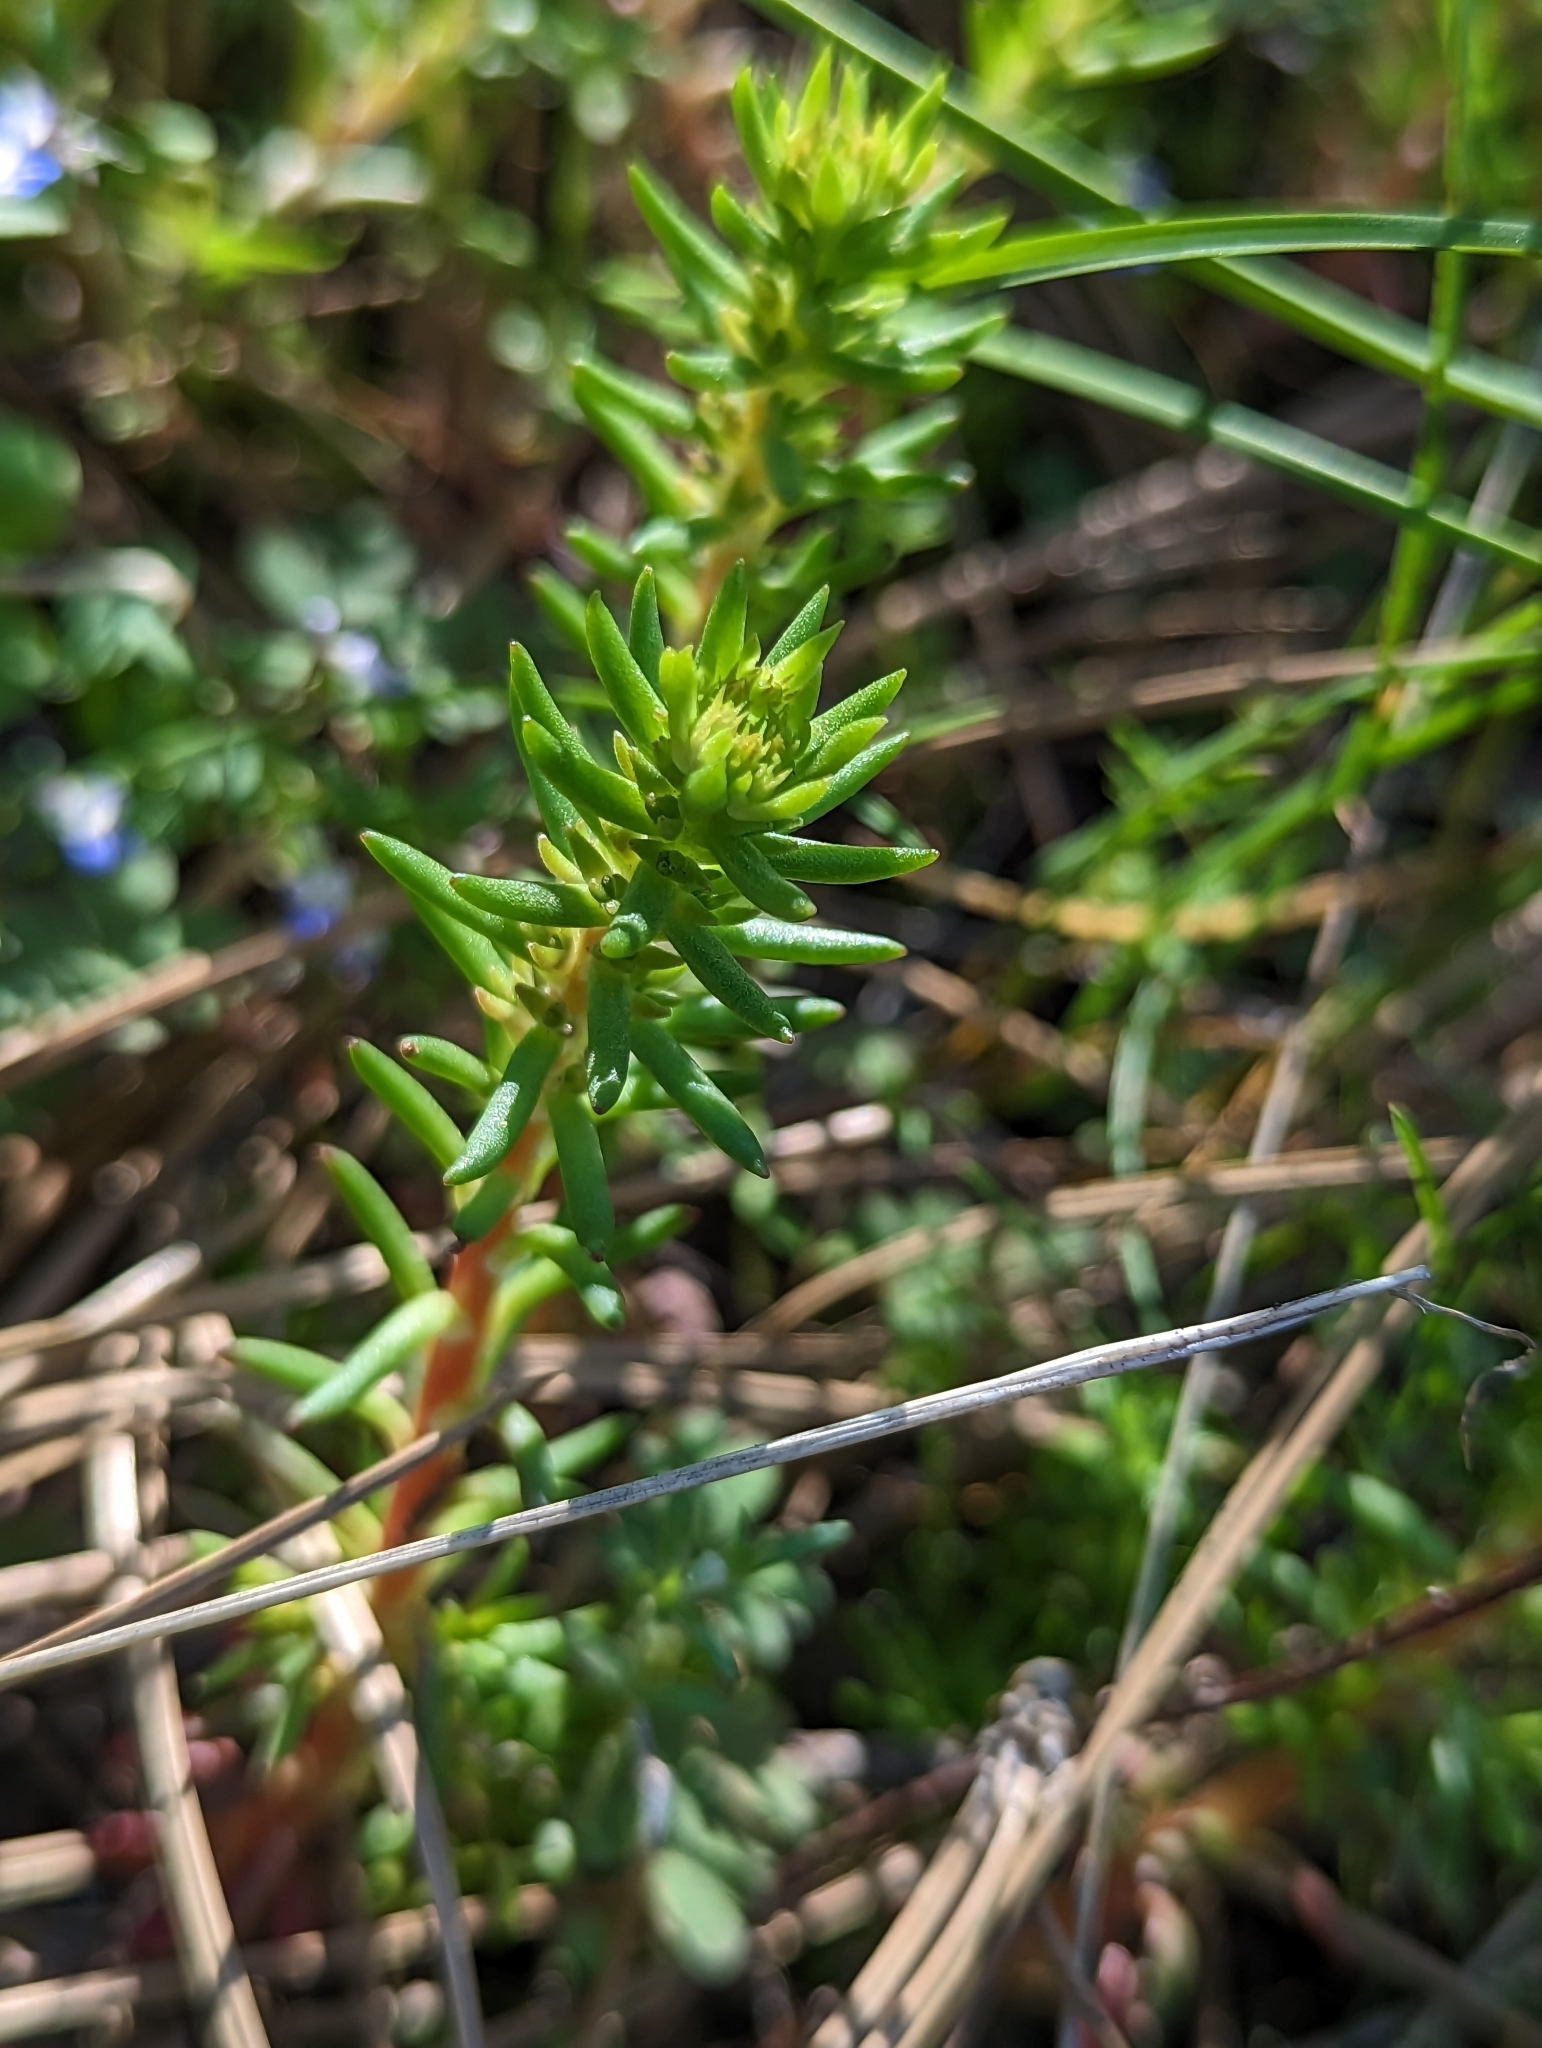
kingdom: Plantae
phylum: Tracheophyta
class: Magnoliopsida
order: Saxifragales
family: Crassulaceae
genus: Sedum
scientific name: Sedum stenopetalum
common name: Narrow-petaled stonecrop
